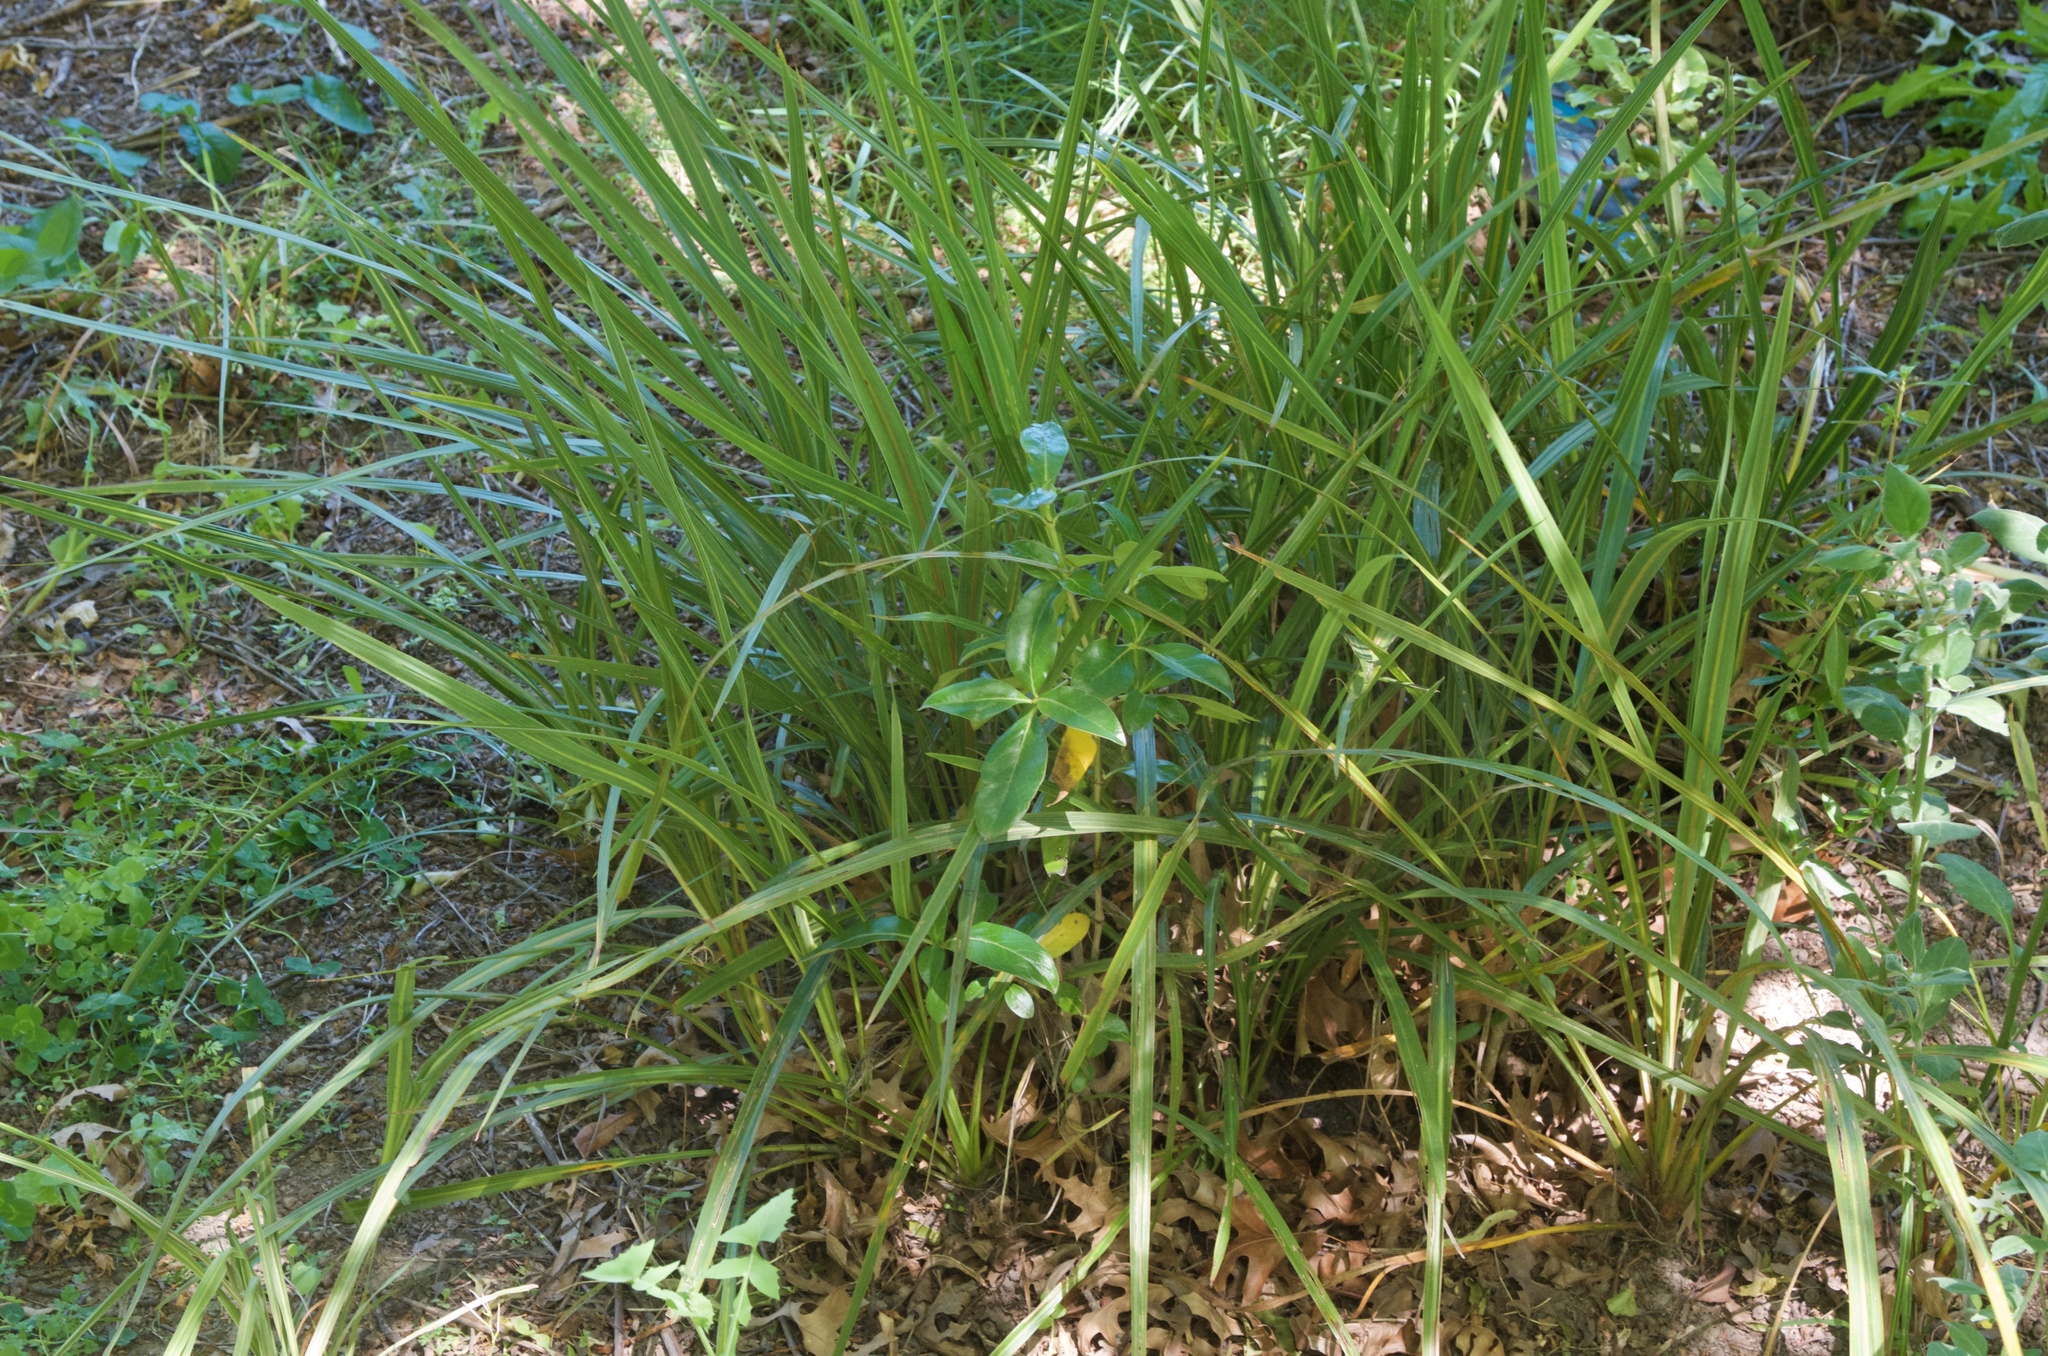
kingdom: Plantae
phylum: Tracheophyta
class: Liliopsida
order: Asparagales
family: Asparagaceae
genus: Cordyline
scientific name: Cordyline australis
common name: Cabbage-palm
